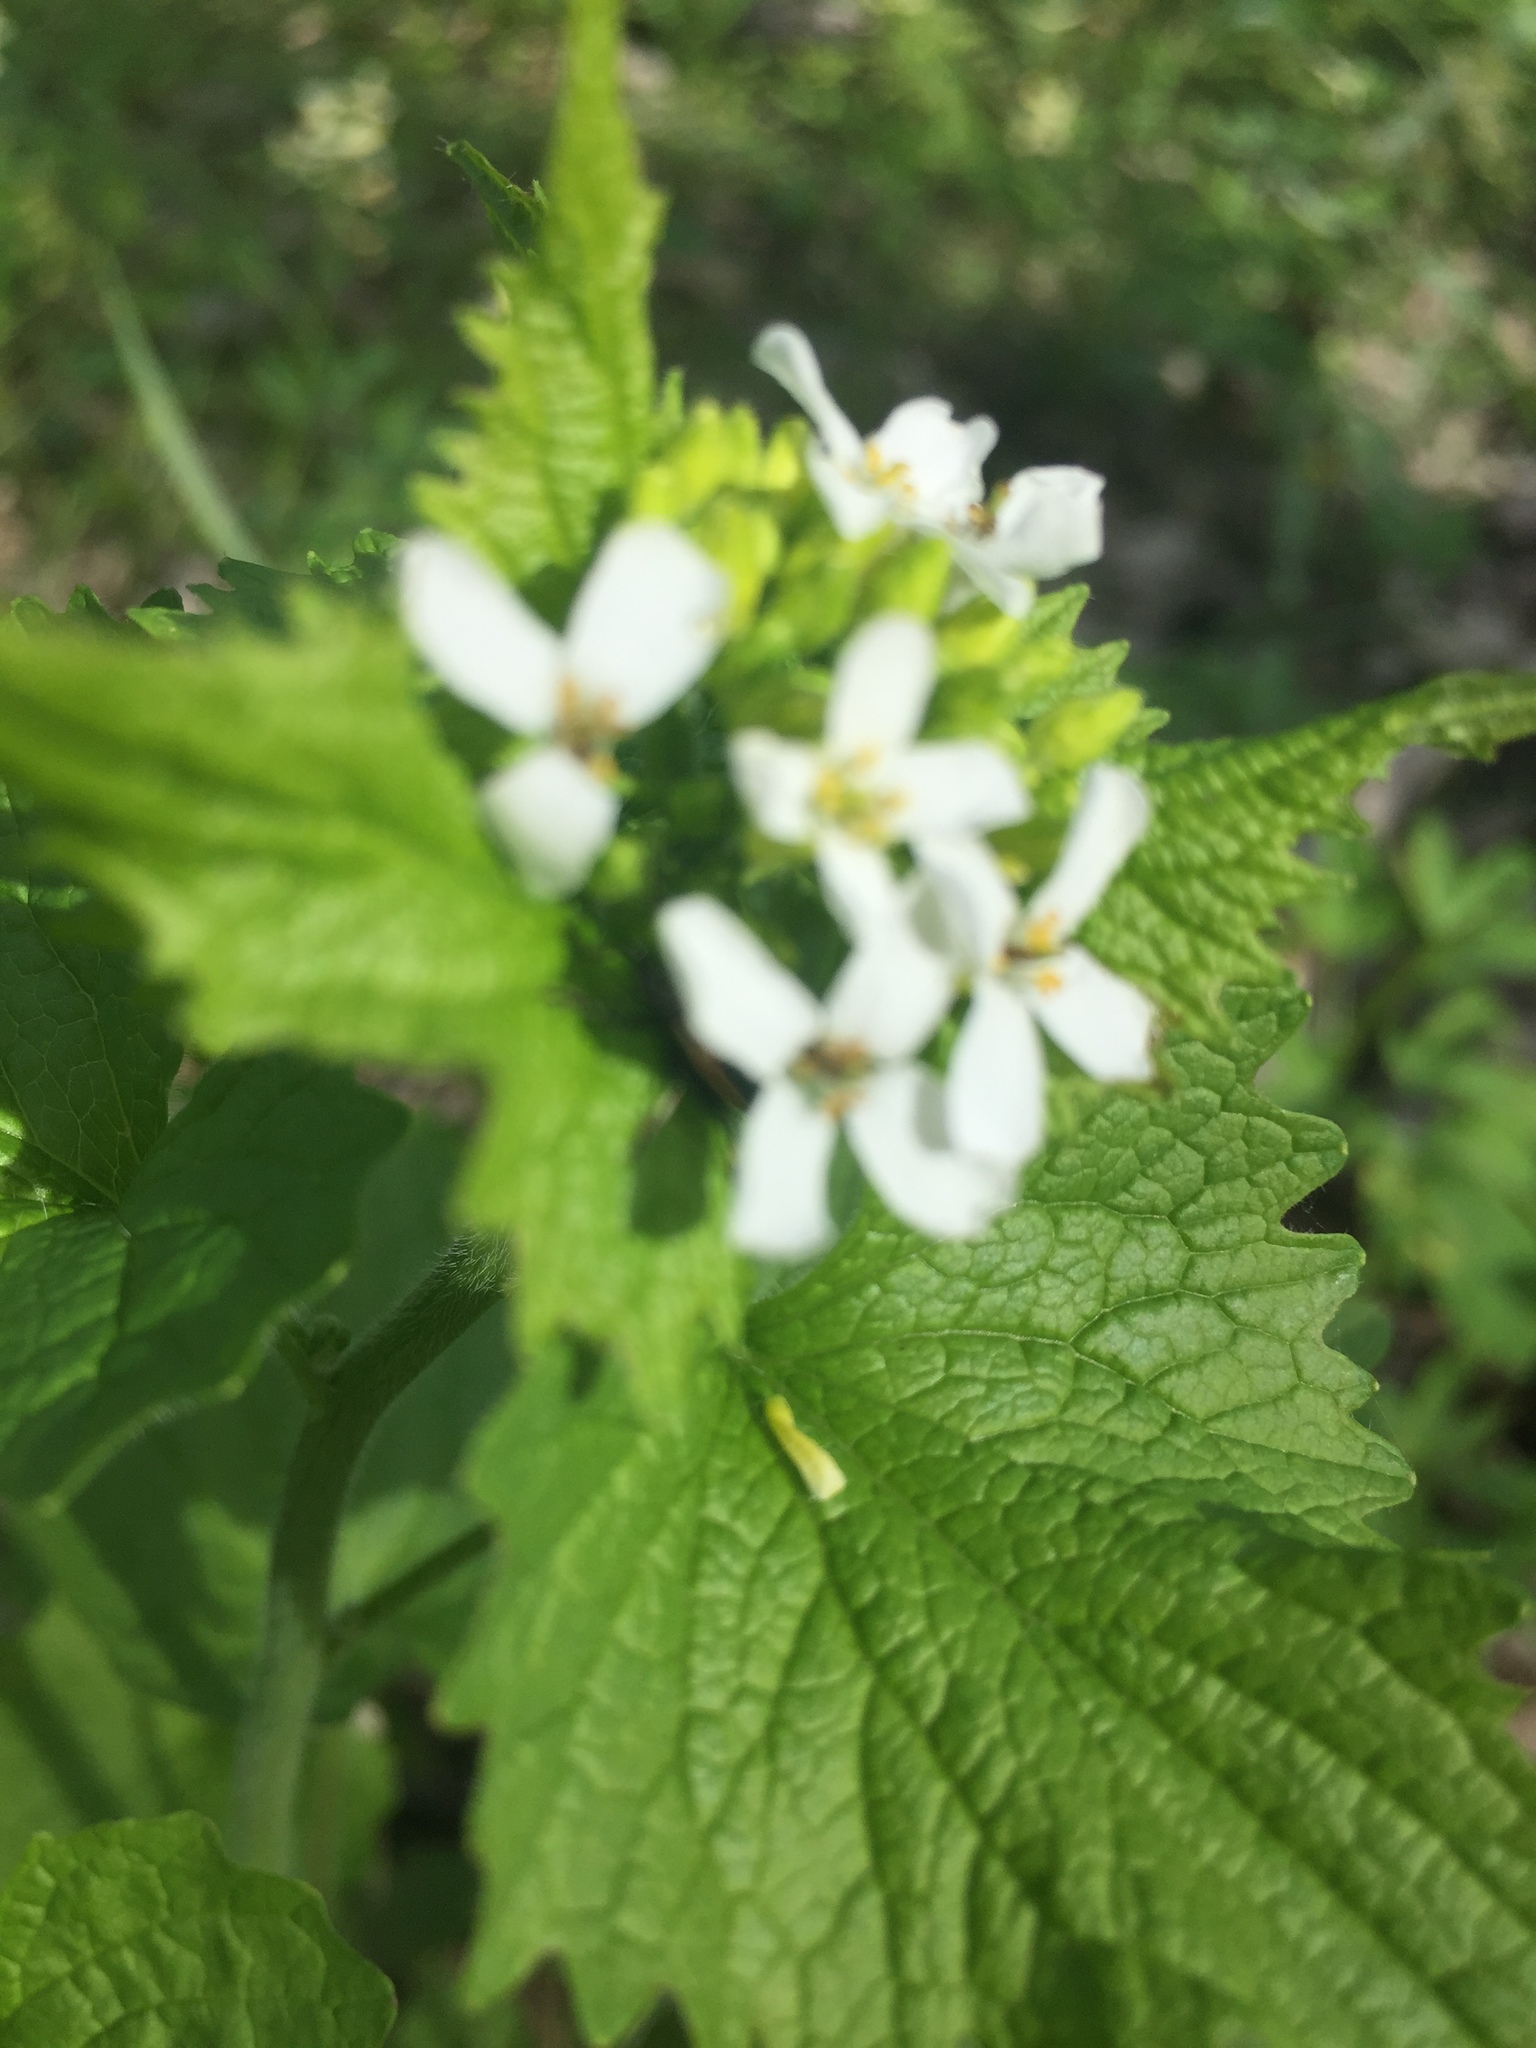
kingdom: Plantae
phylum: Tracheophyta
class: Magnoliopsida
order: Brassicales
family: Brassicaceae
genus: Alliaria
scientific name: Alliaria petiolata
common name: Garlic mustard
